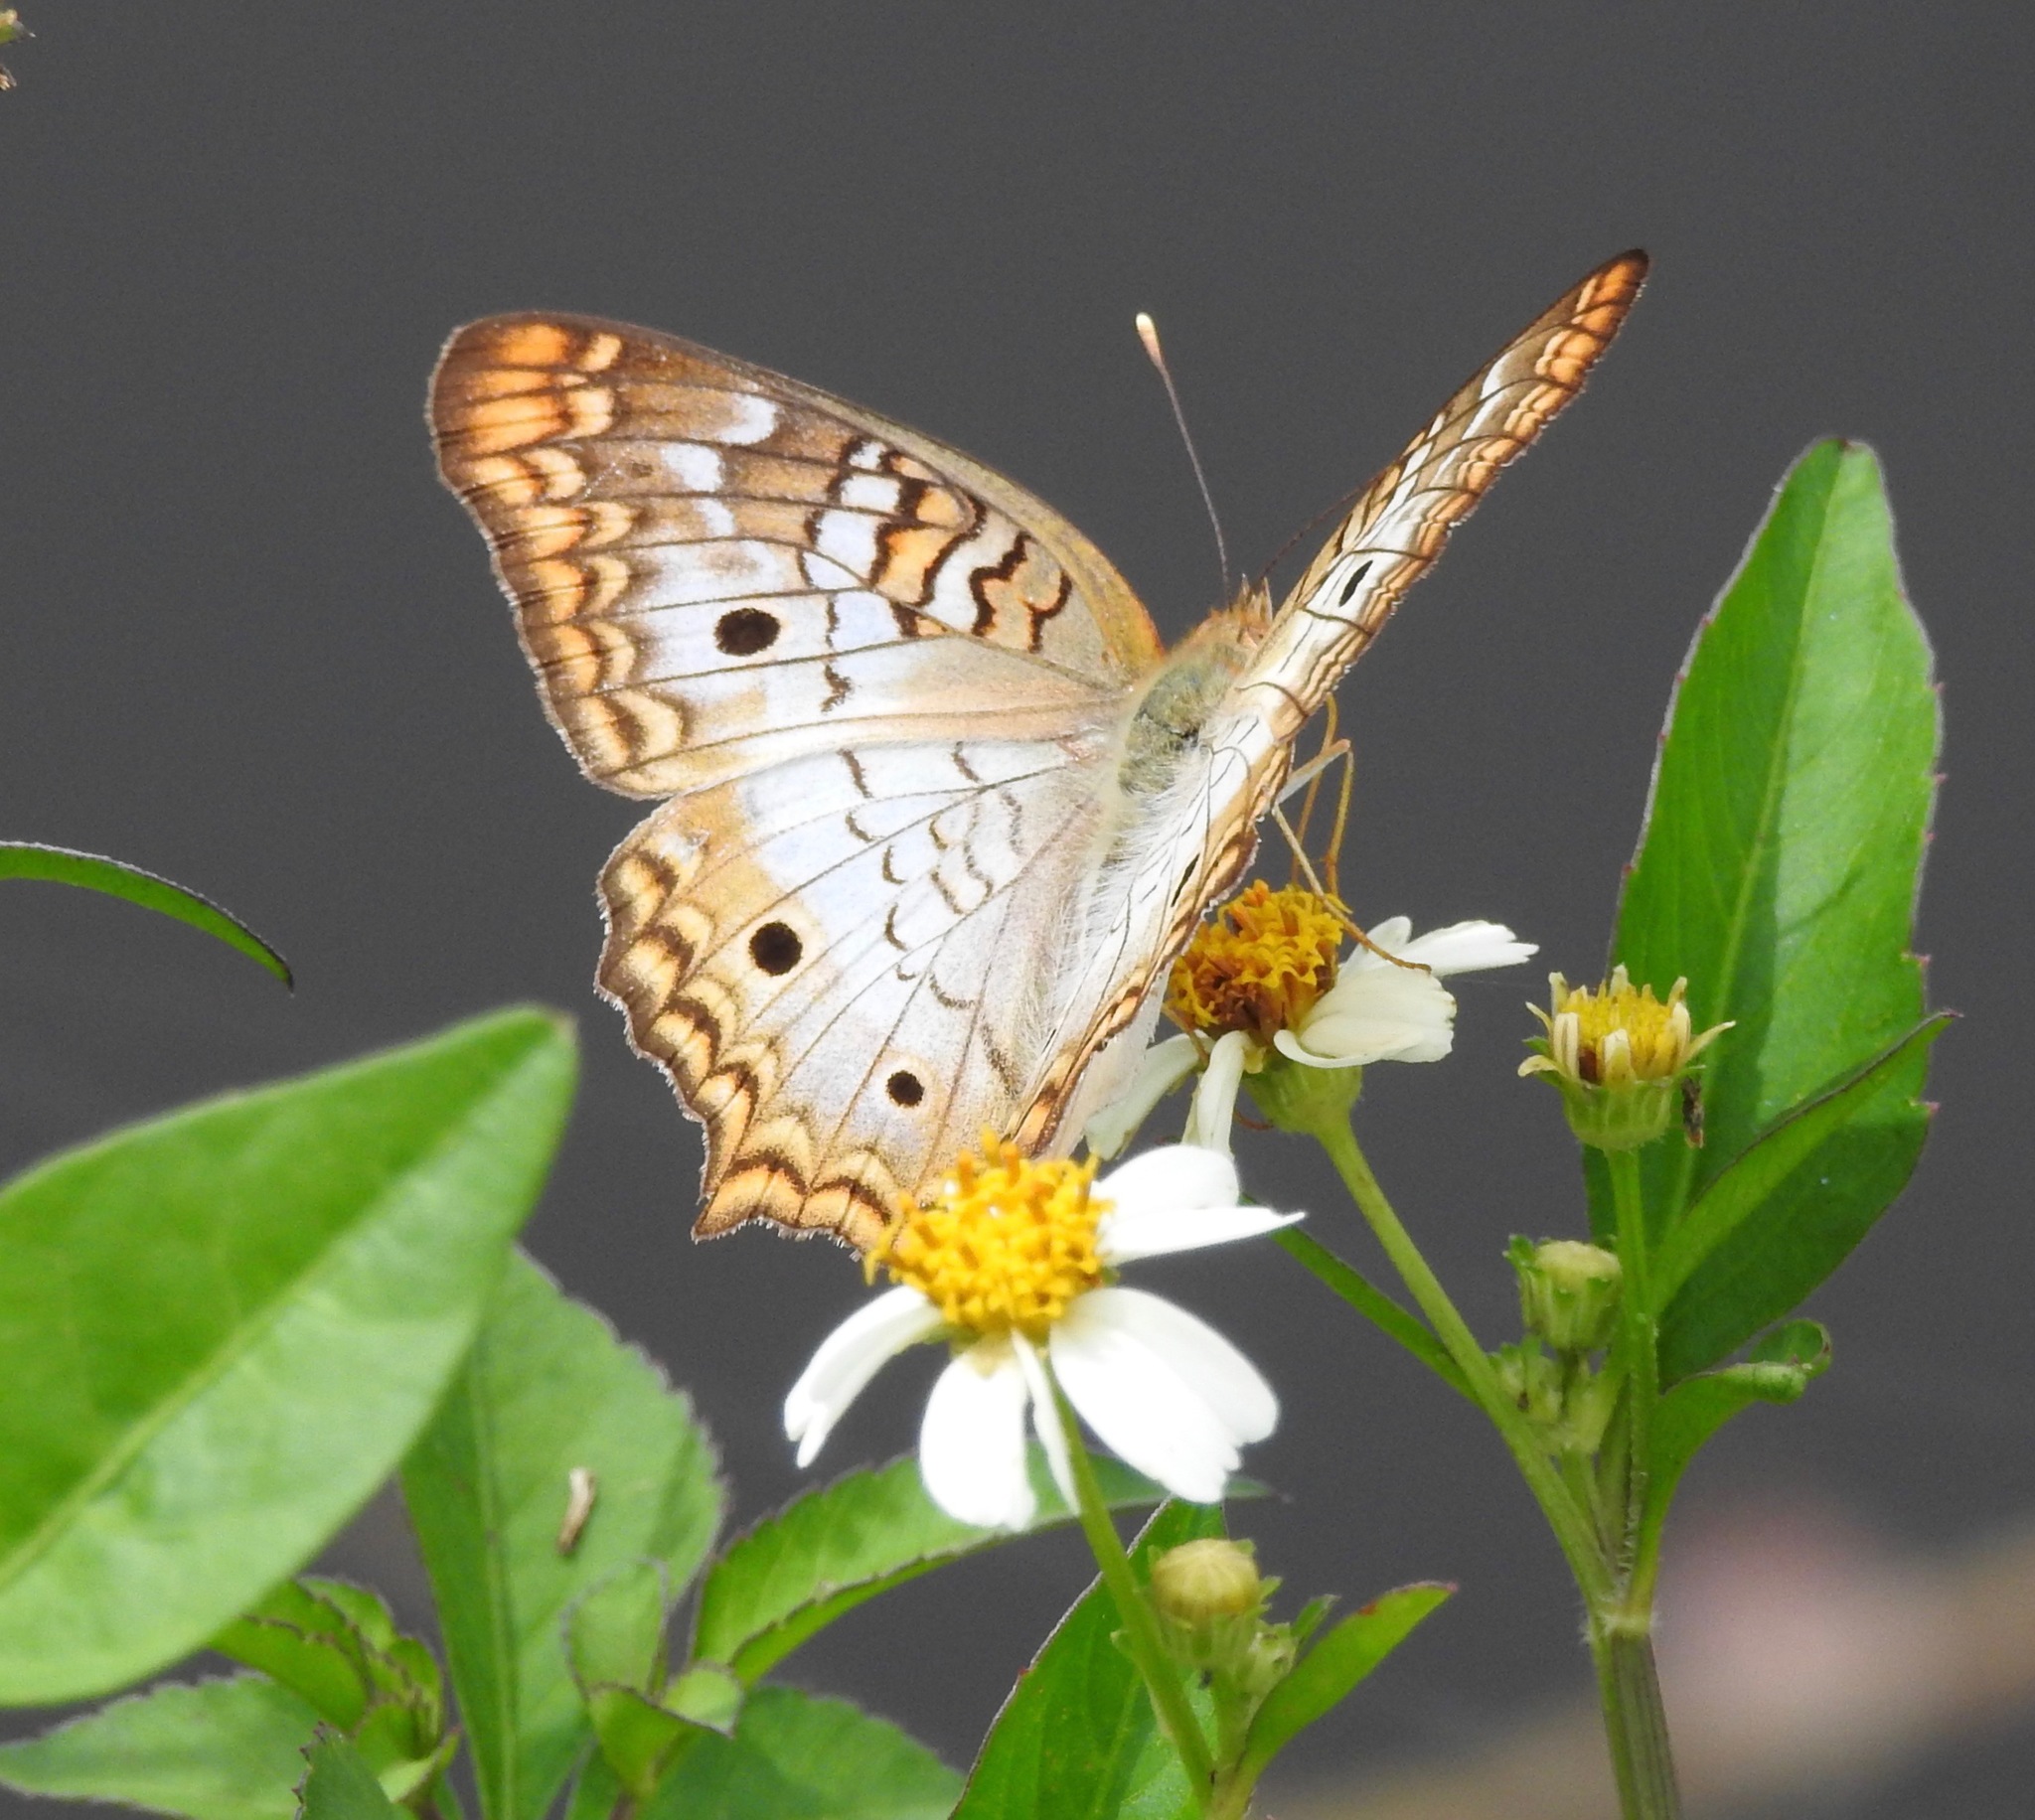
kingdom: Animalia
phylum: Arthropoda
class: Insecta
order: Lepidoptera
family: Nymphalidae
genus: Anartia
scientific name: Anartia jatrophae
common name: White peacock
